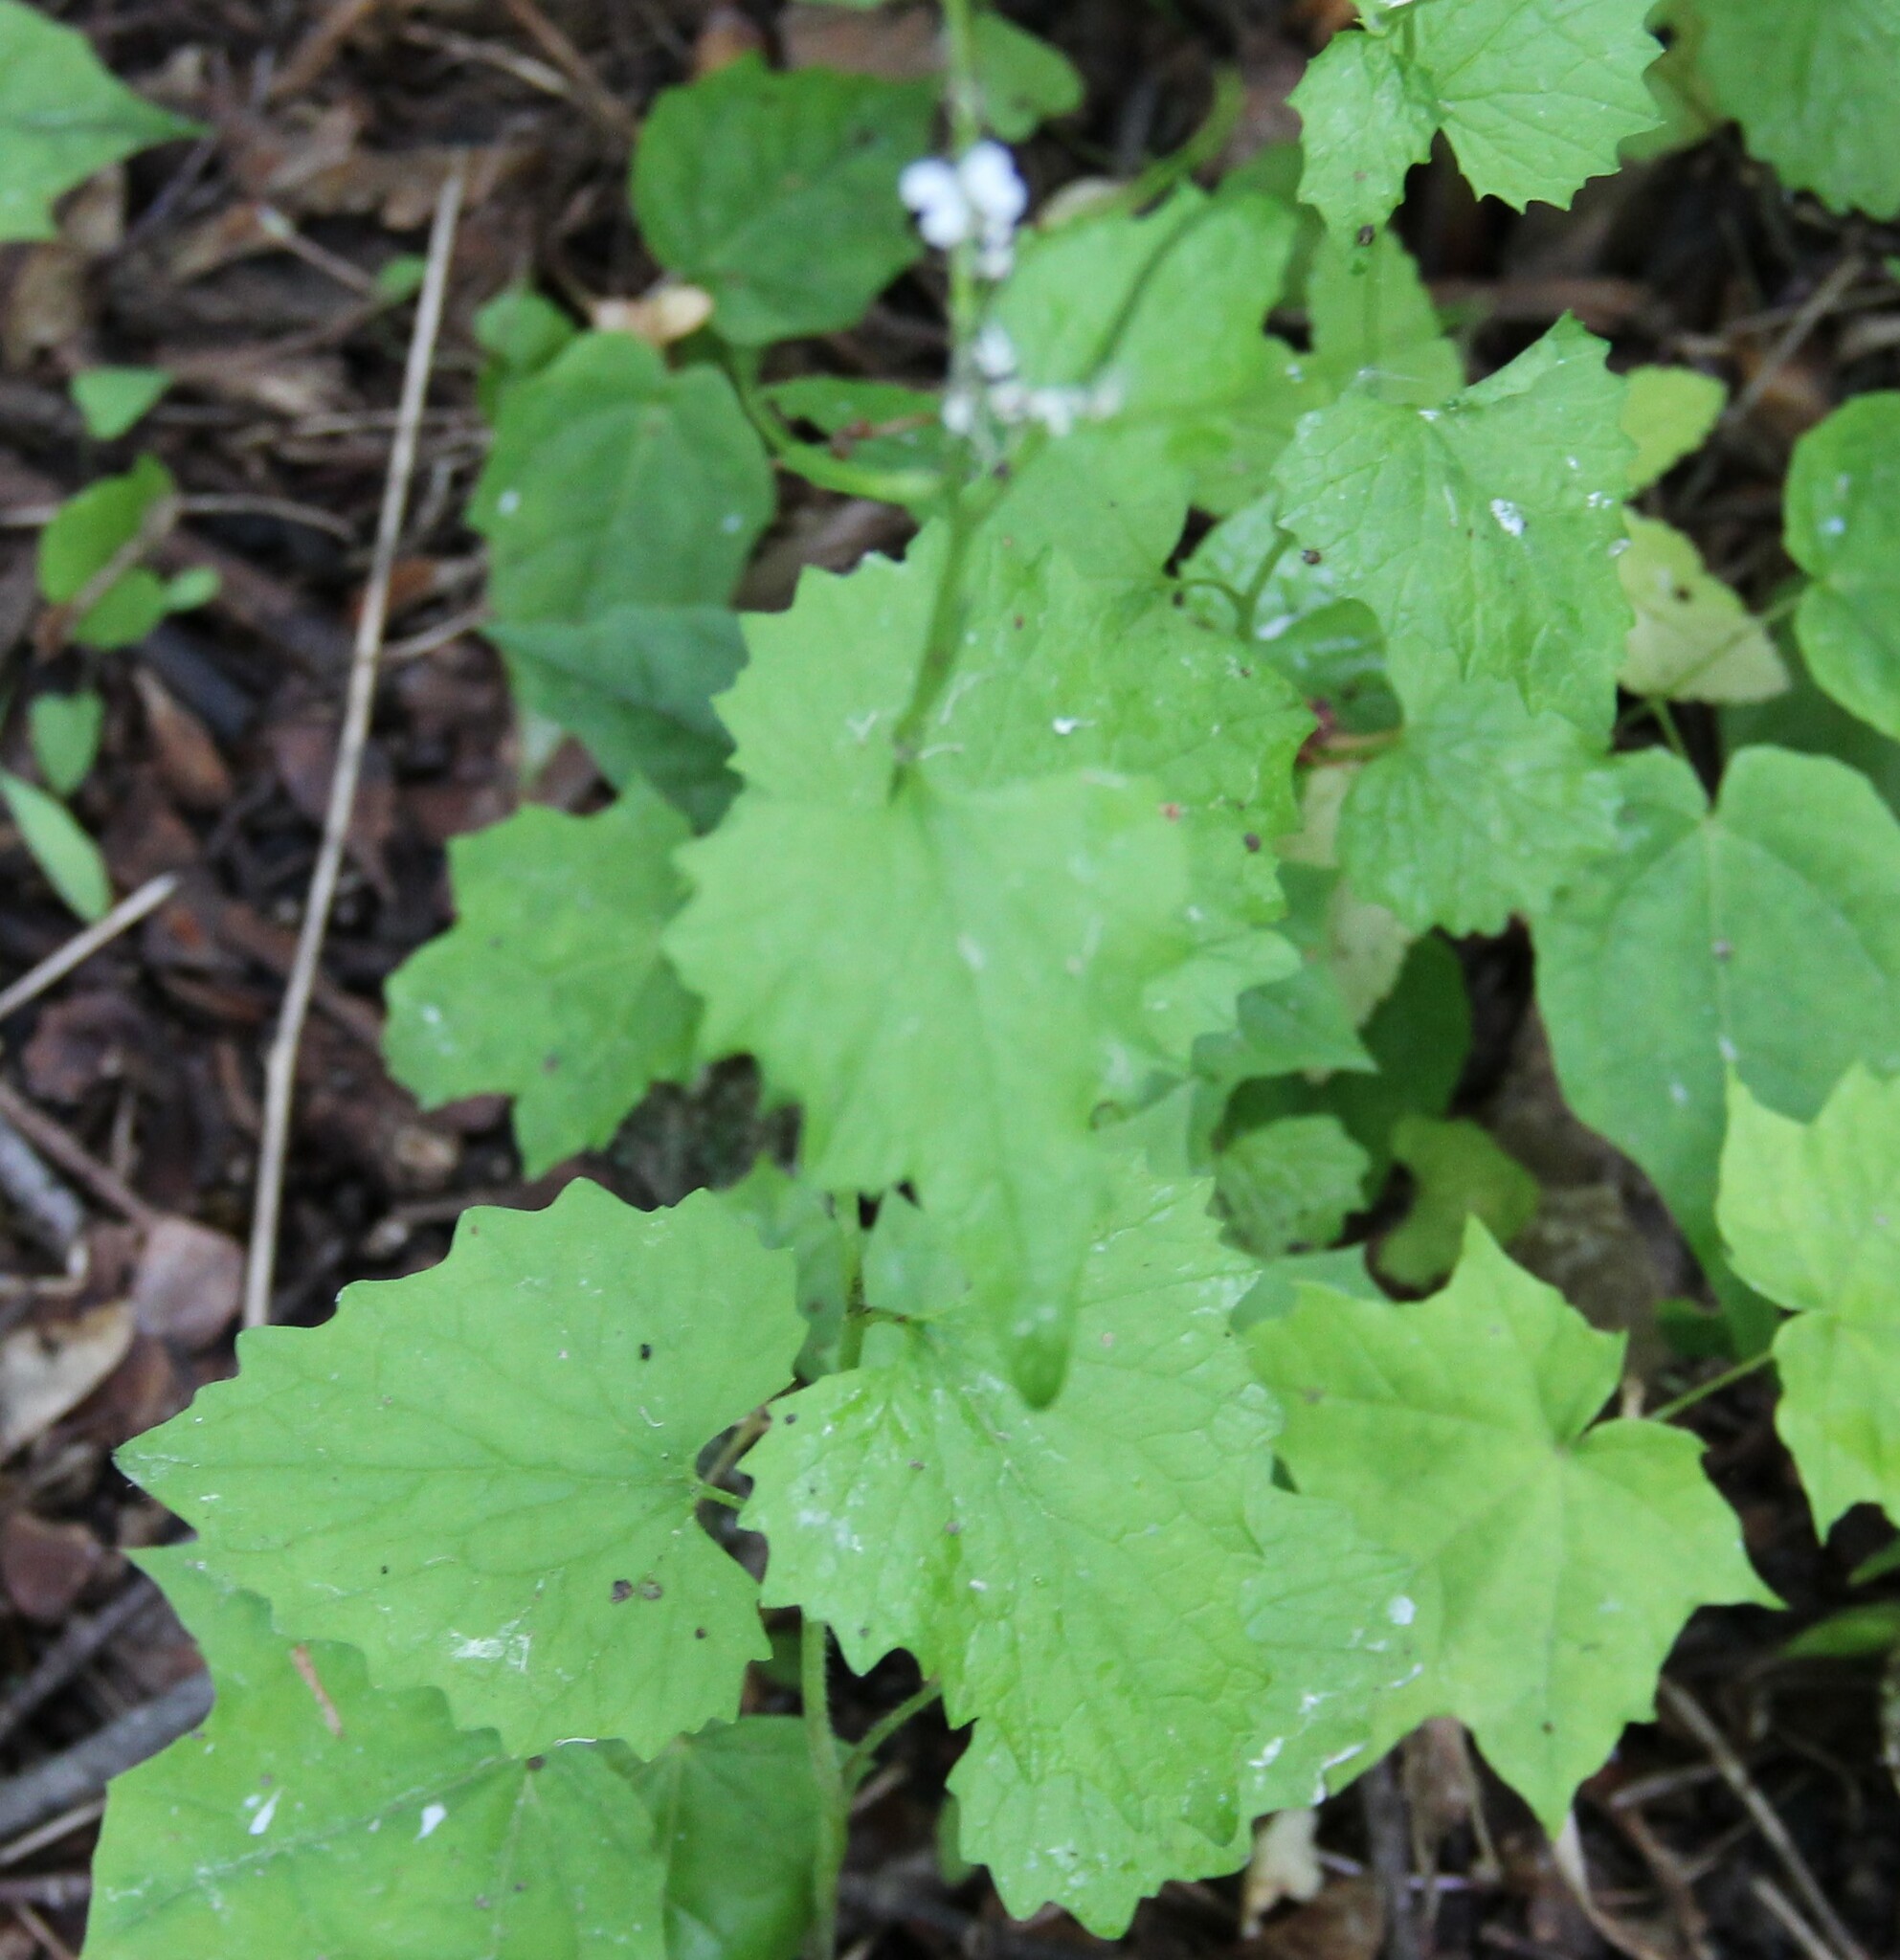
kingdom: Plantae
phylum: Tracheophyta
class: Magnoliopsida
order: Brassicales
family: Brassicaceae
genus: Alliaria
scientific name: Alliaria petiolata
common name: Garlic mustard
